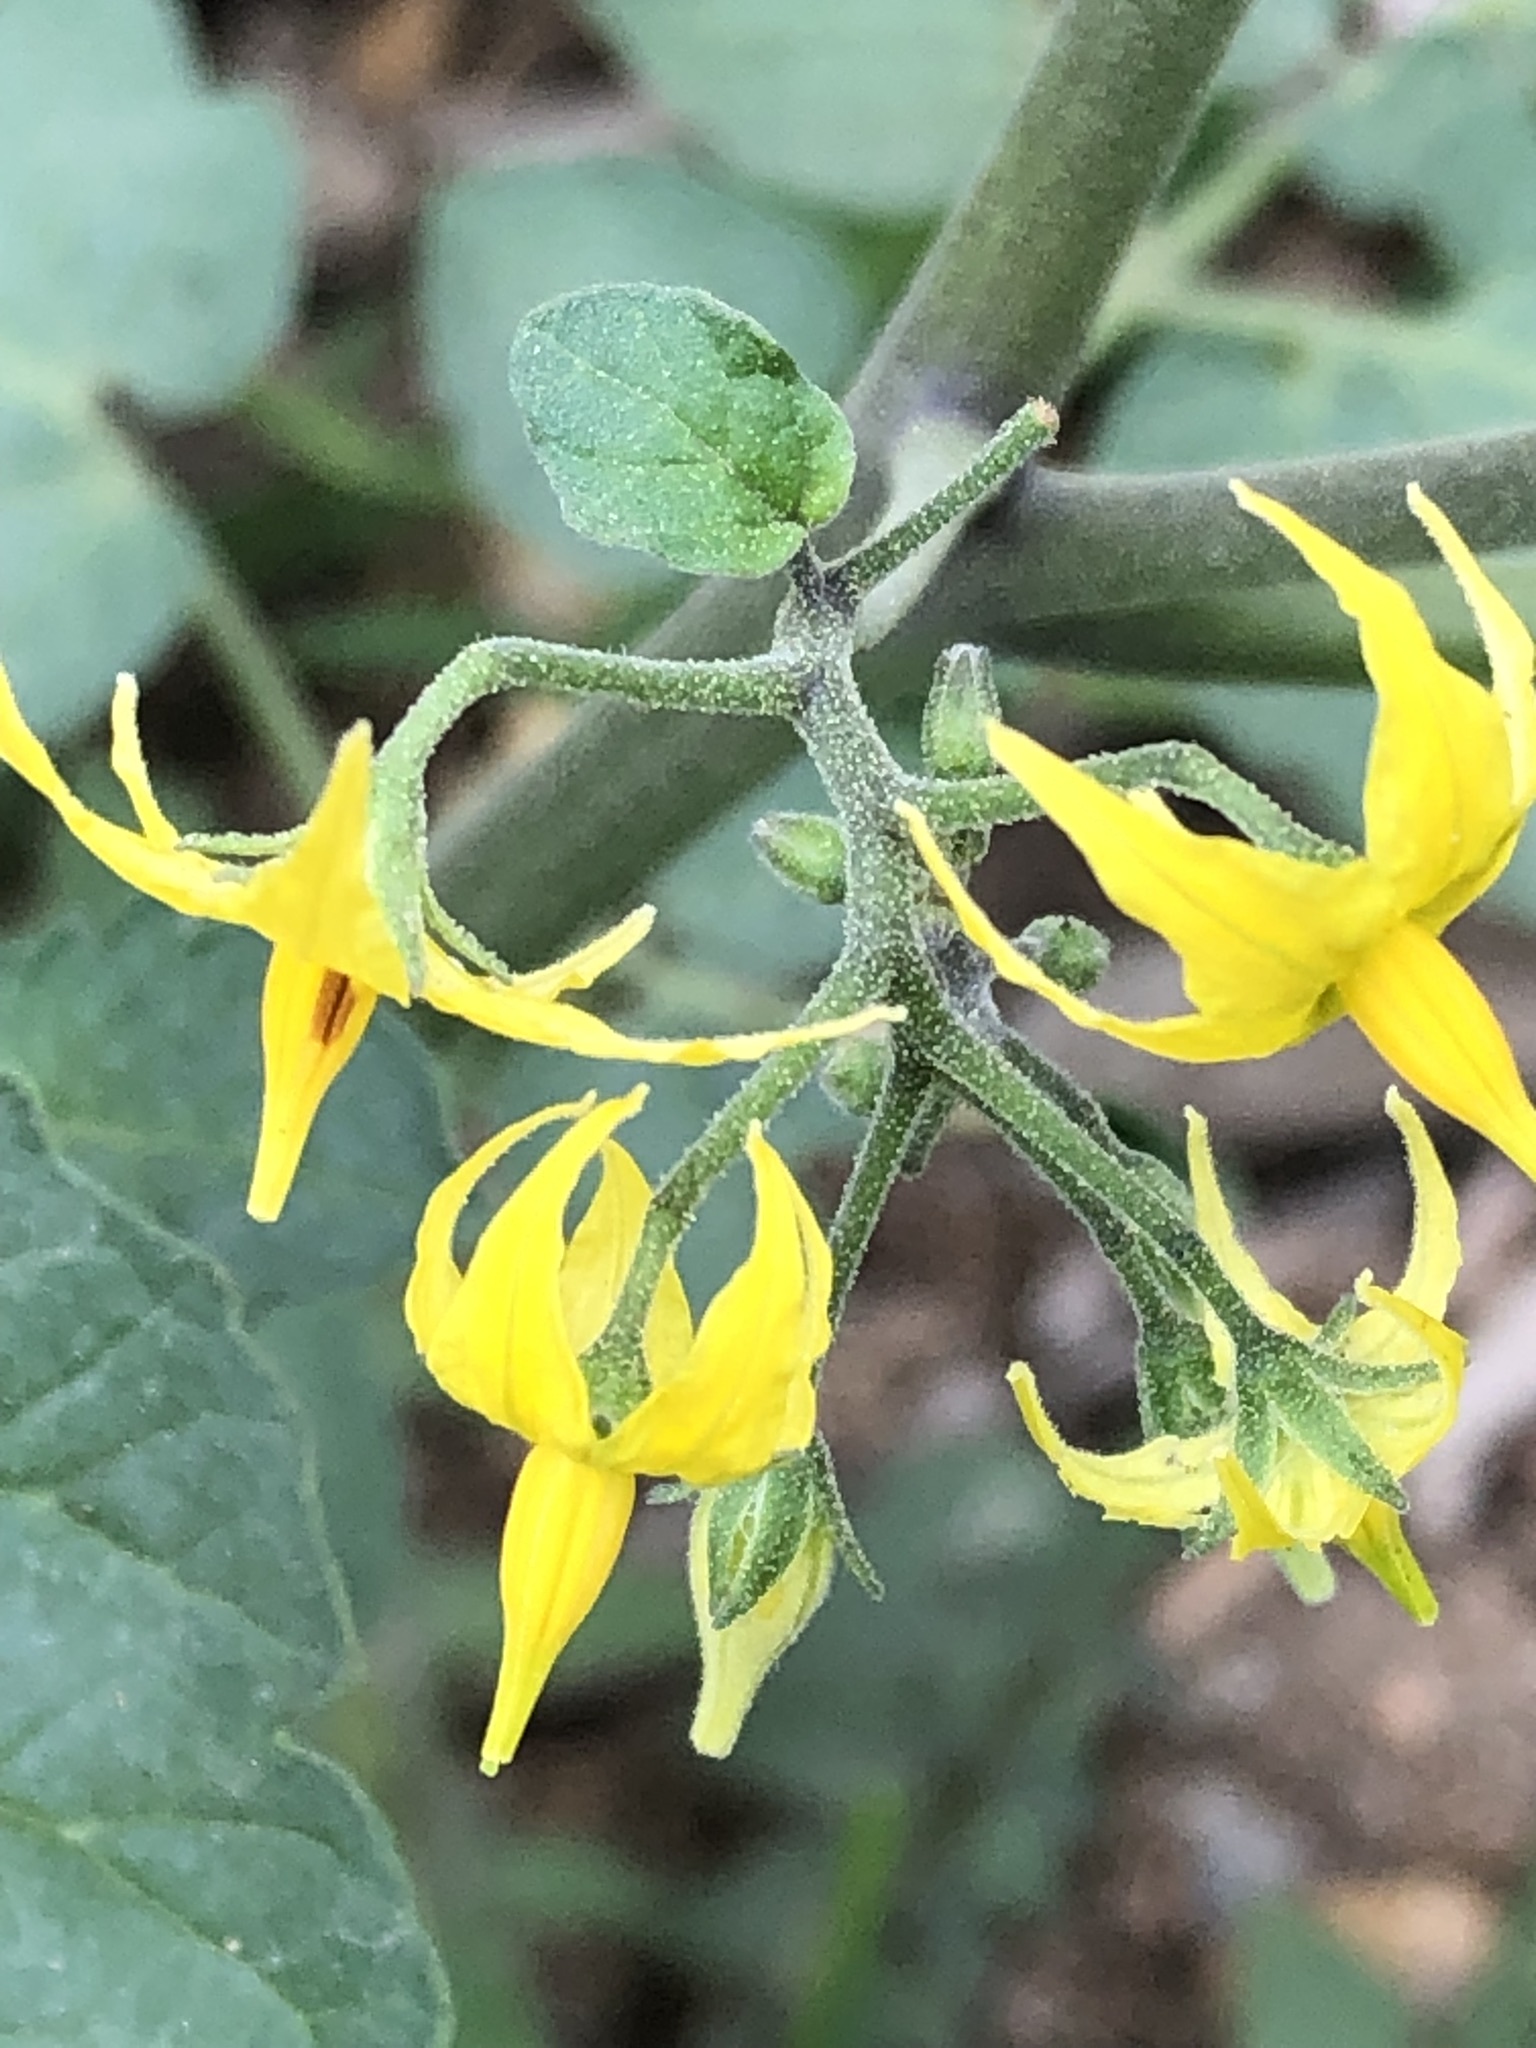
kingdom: Plantae
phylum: Tracheophyta
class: Magnoliopsida
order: Solanales
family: Solanaceae
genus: Solanum
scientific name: Solanum lycopersicum
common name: Garden tomato
